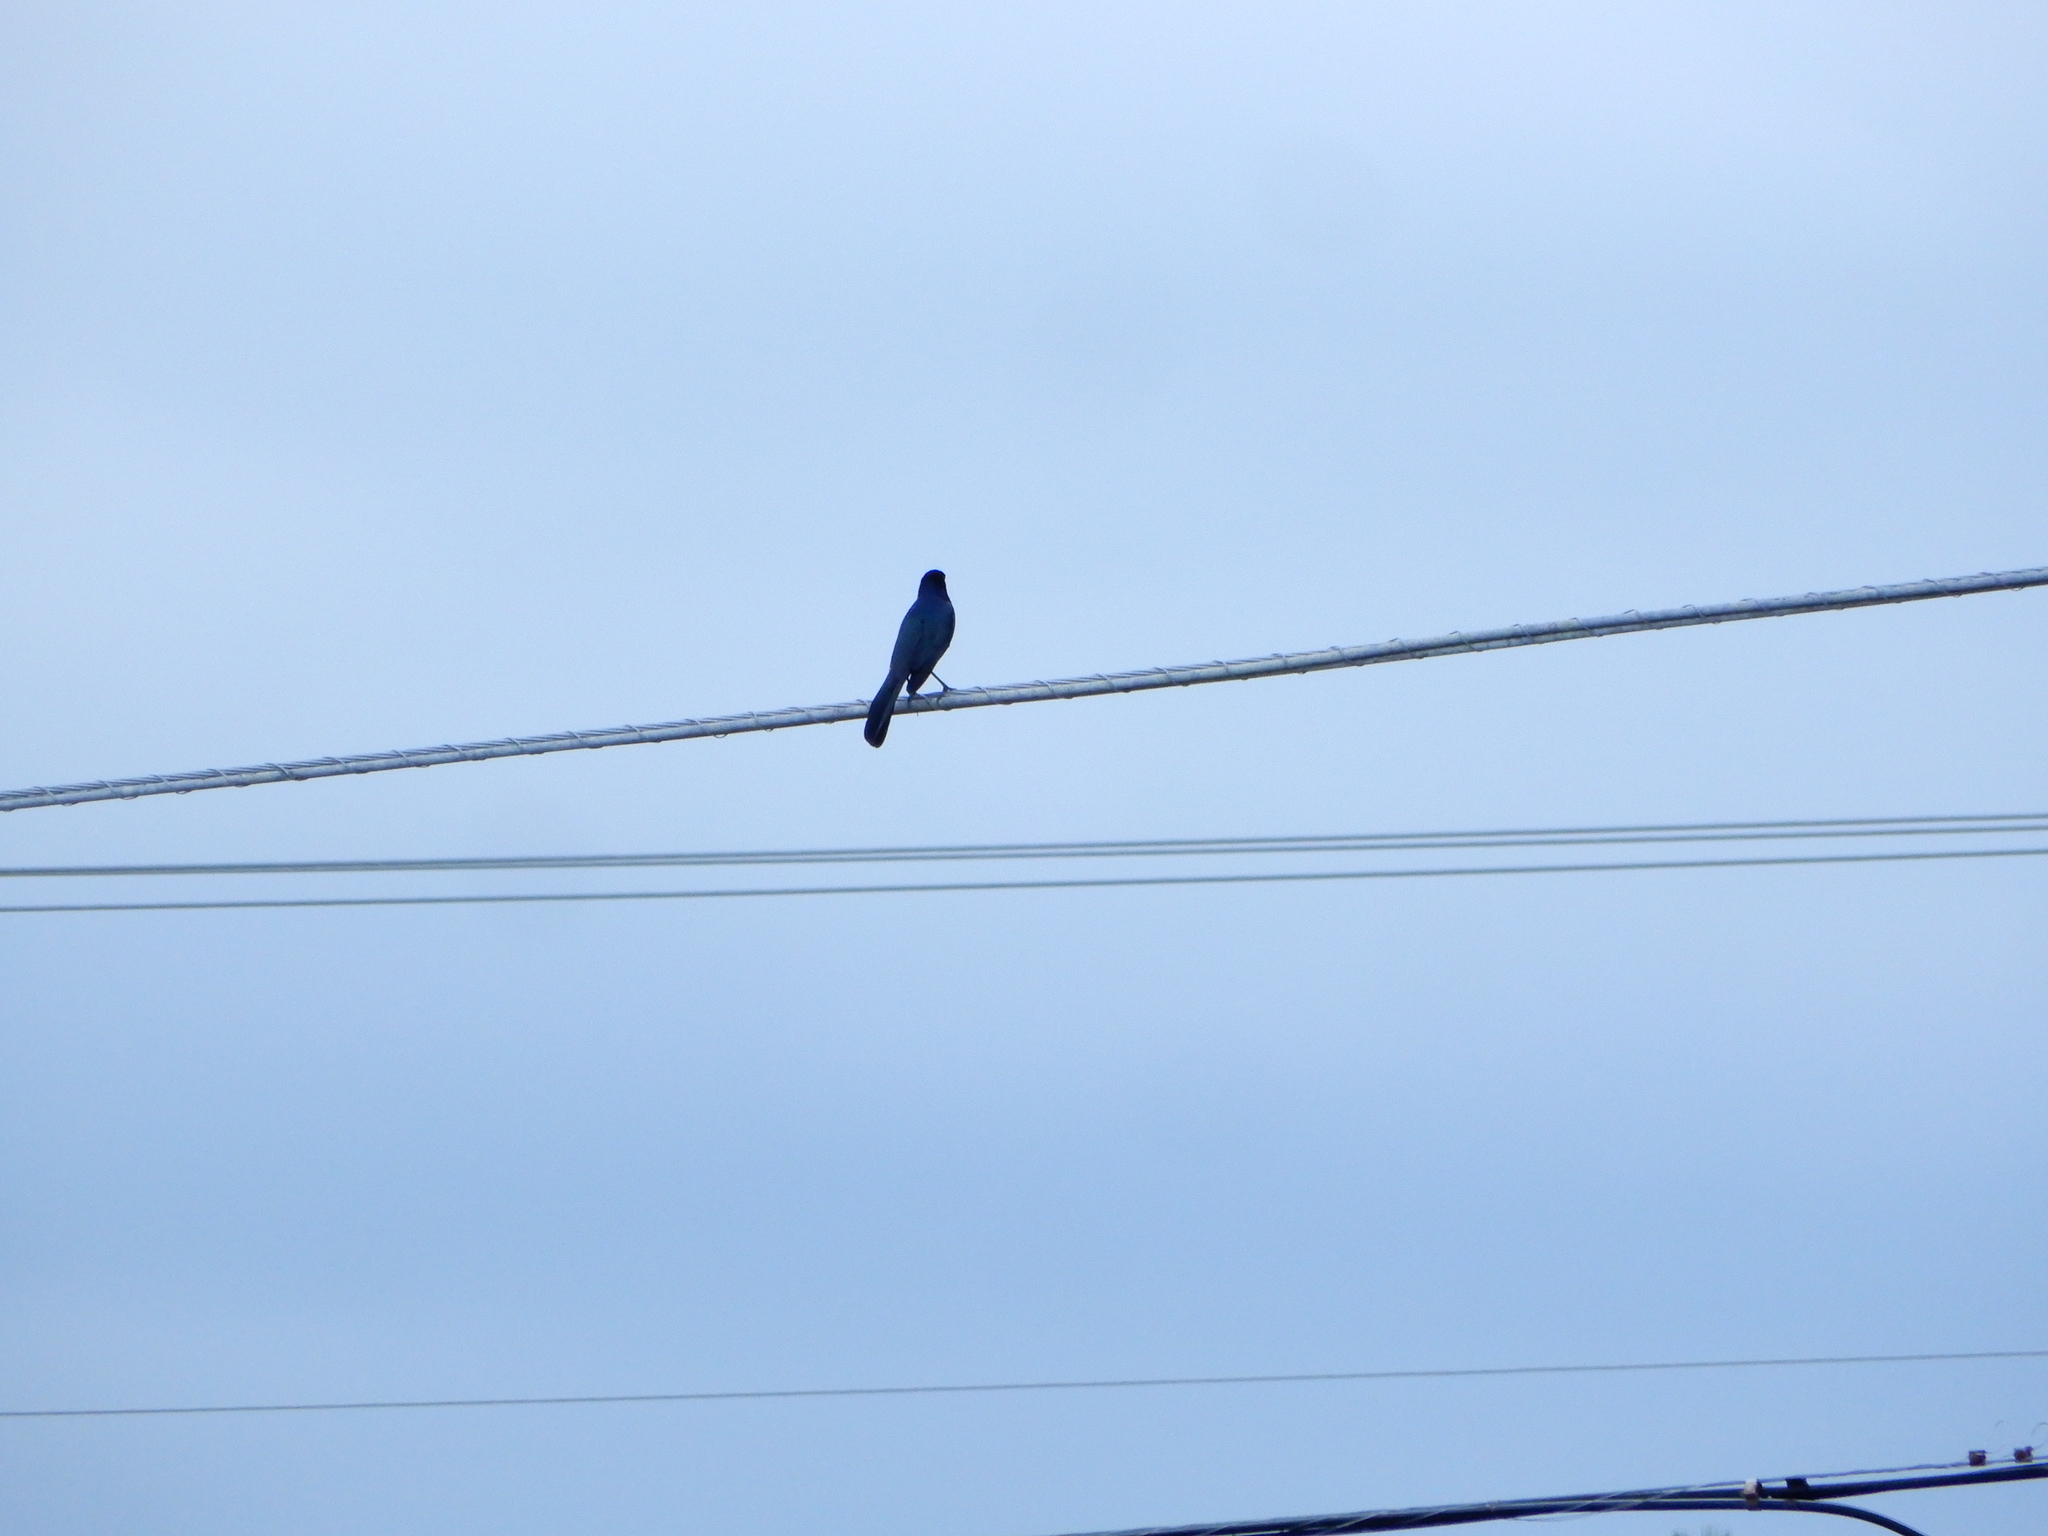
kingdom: Animalia
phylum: Chordata
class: Aves
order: Passeriformes
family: Icteridae
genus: Quiscalus
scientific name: Quiscalus major
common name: Boat-tailed grackle
